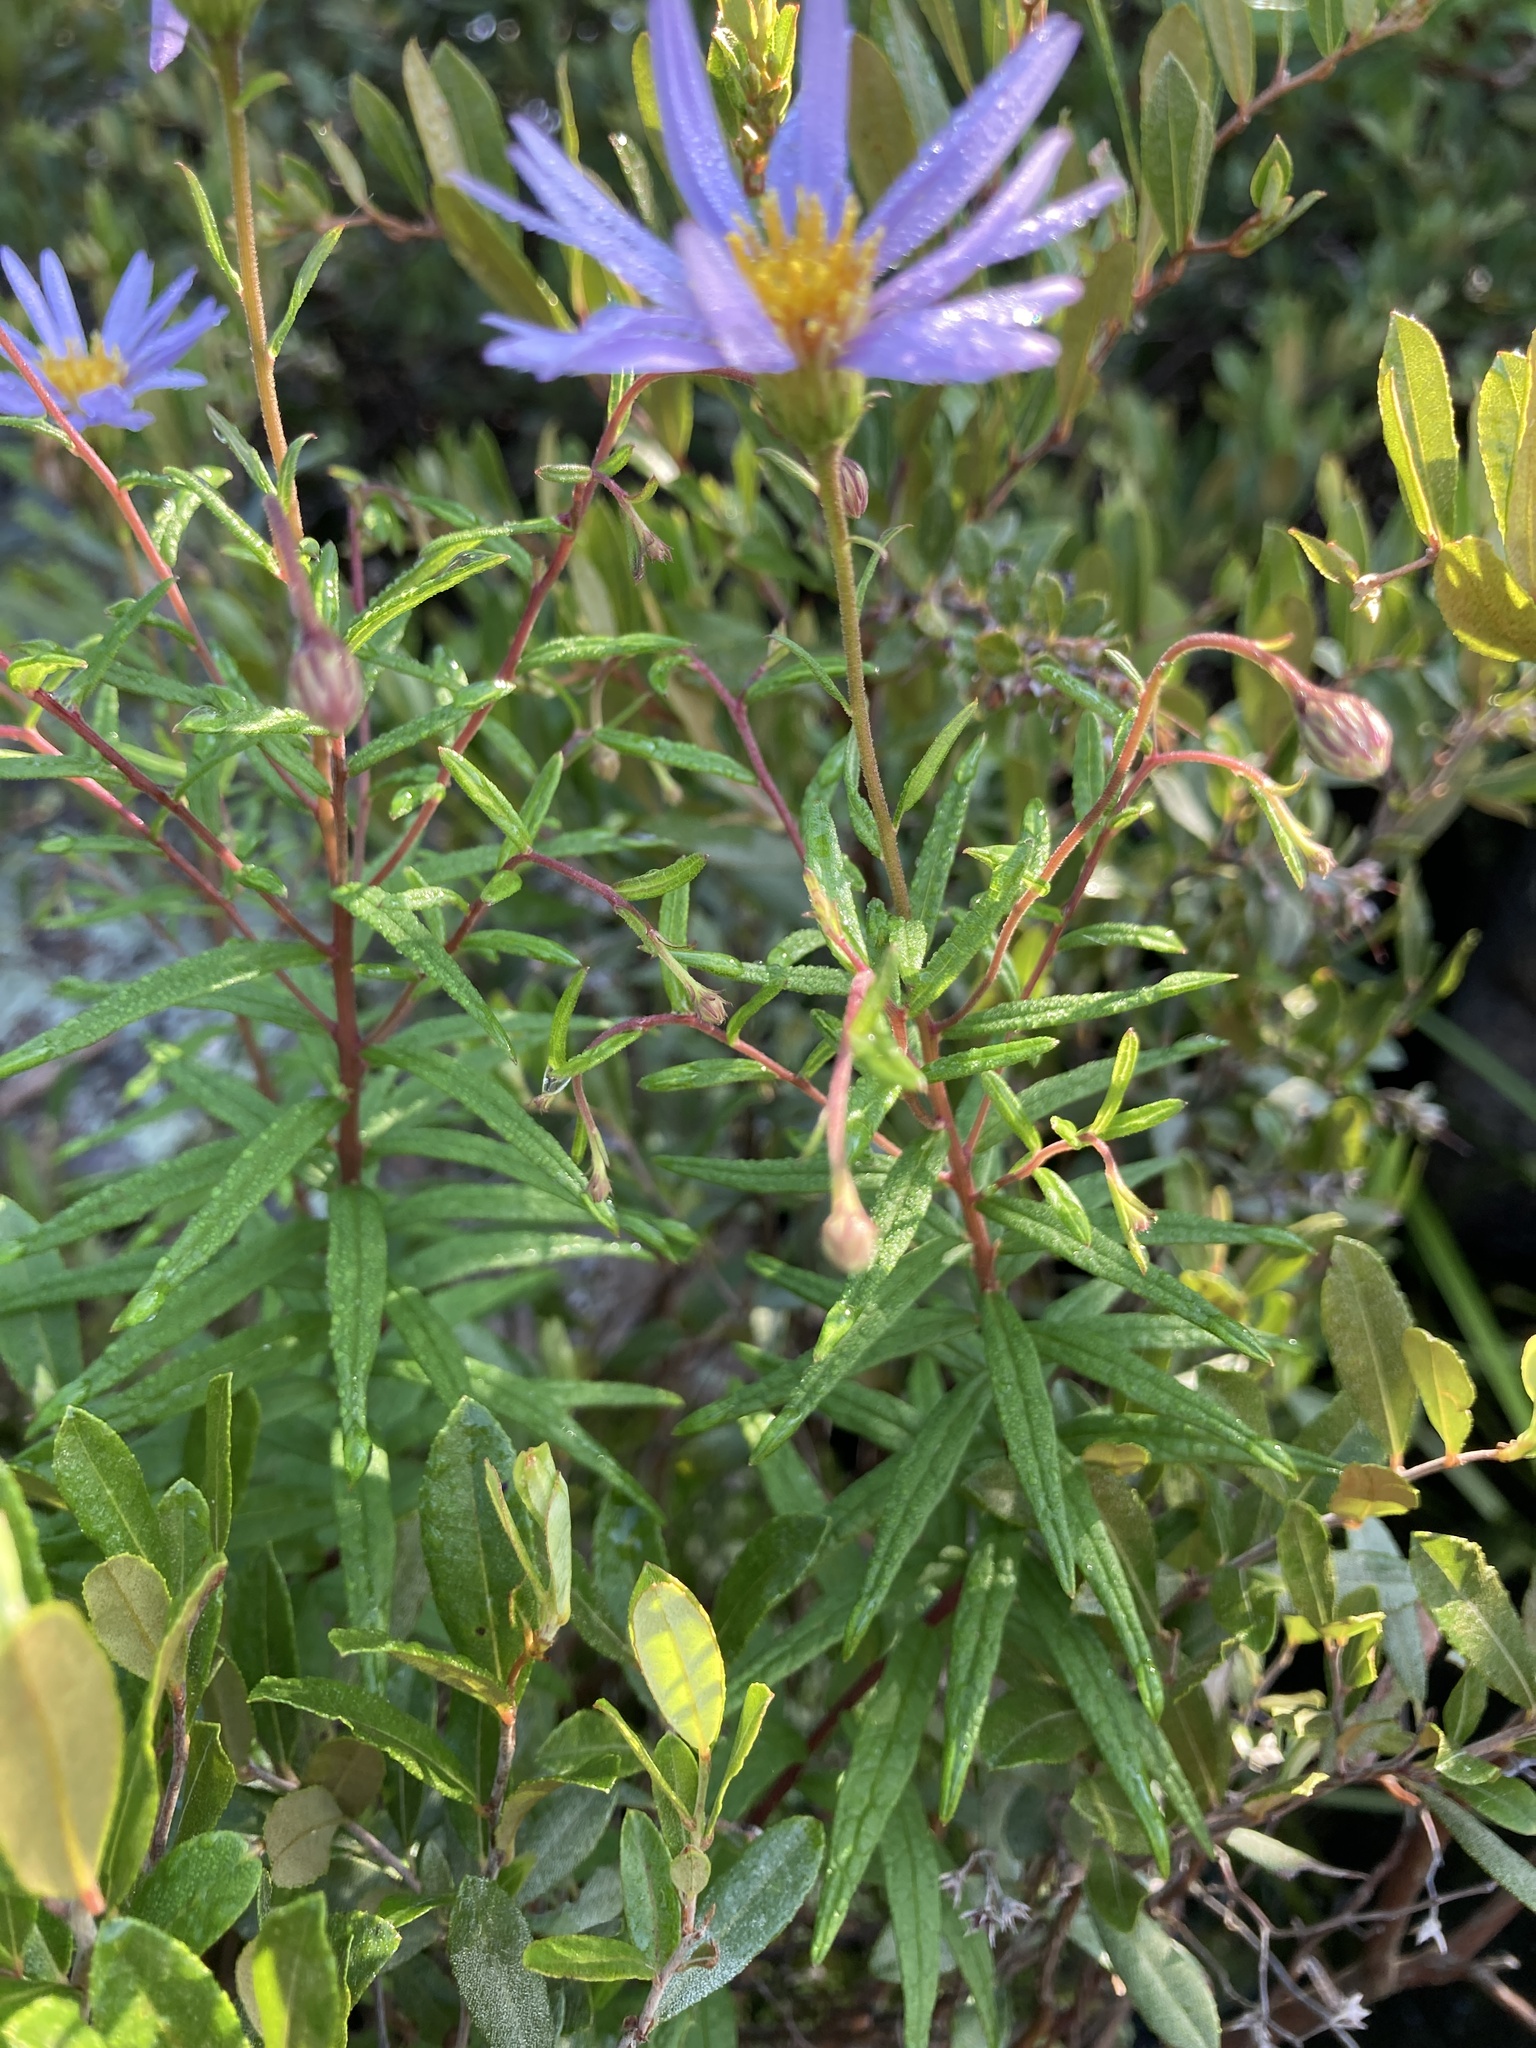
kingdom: Plantae
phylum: Tracheophyta
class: Magnoliopsida
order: Asterales
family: Asteraceae
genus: Oclemena
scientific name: Oclemena nemoralis
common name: Bog aster
